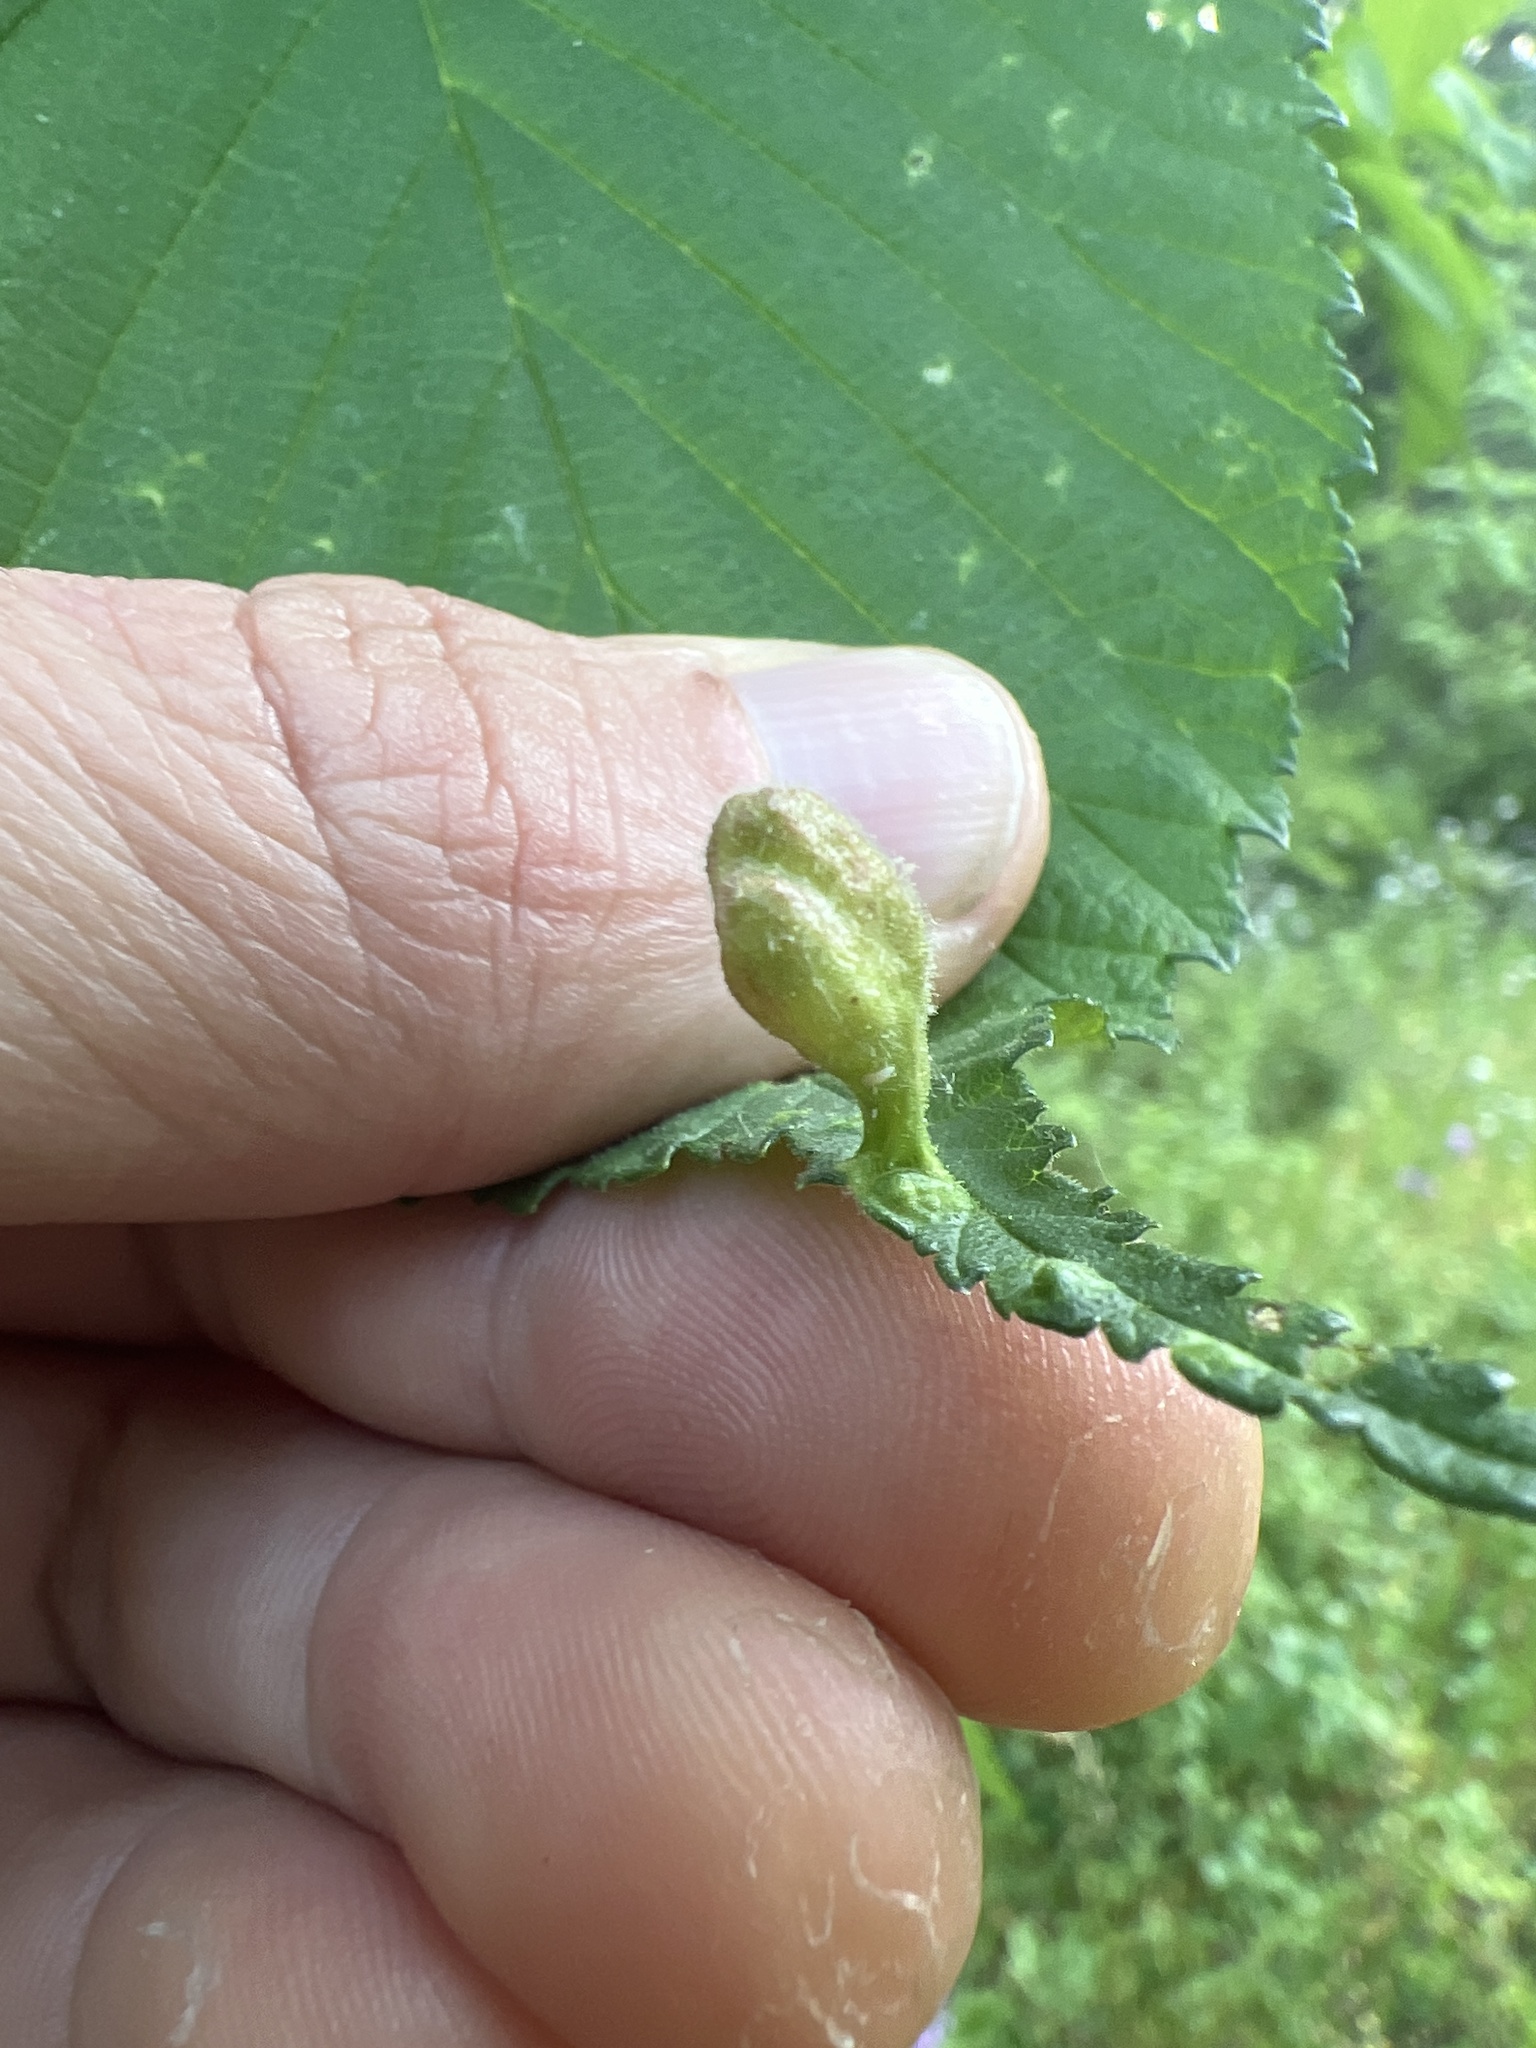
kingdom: Animalia
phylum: Arthropoda
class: Insecta
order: Hemiptera
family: Aphididae
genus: Tetraneura
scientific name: Tetraneura nigriabdominalis
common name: Aphid
